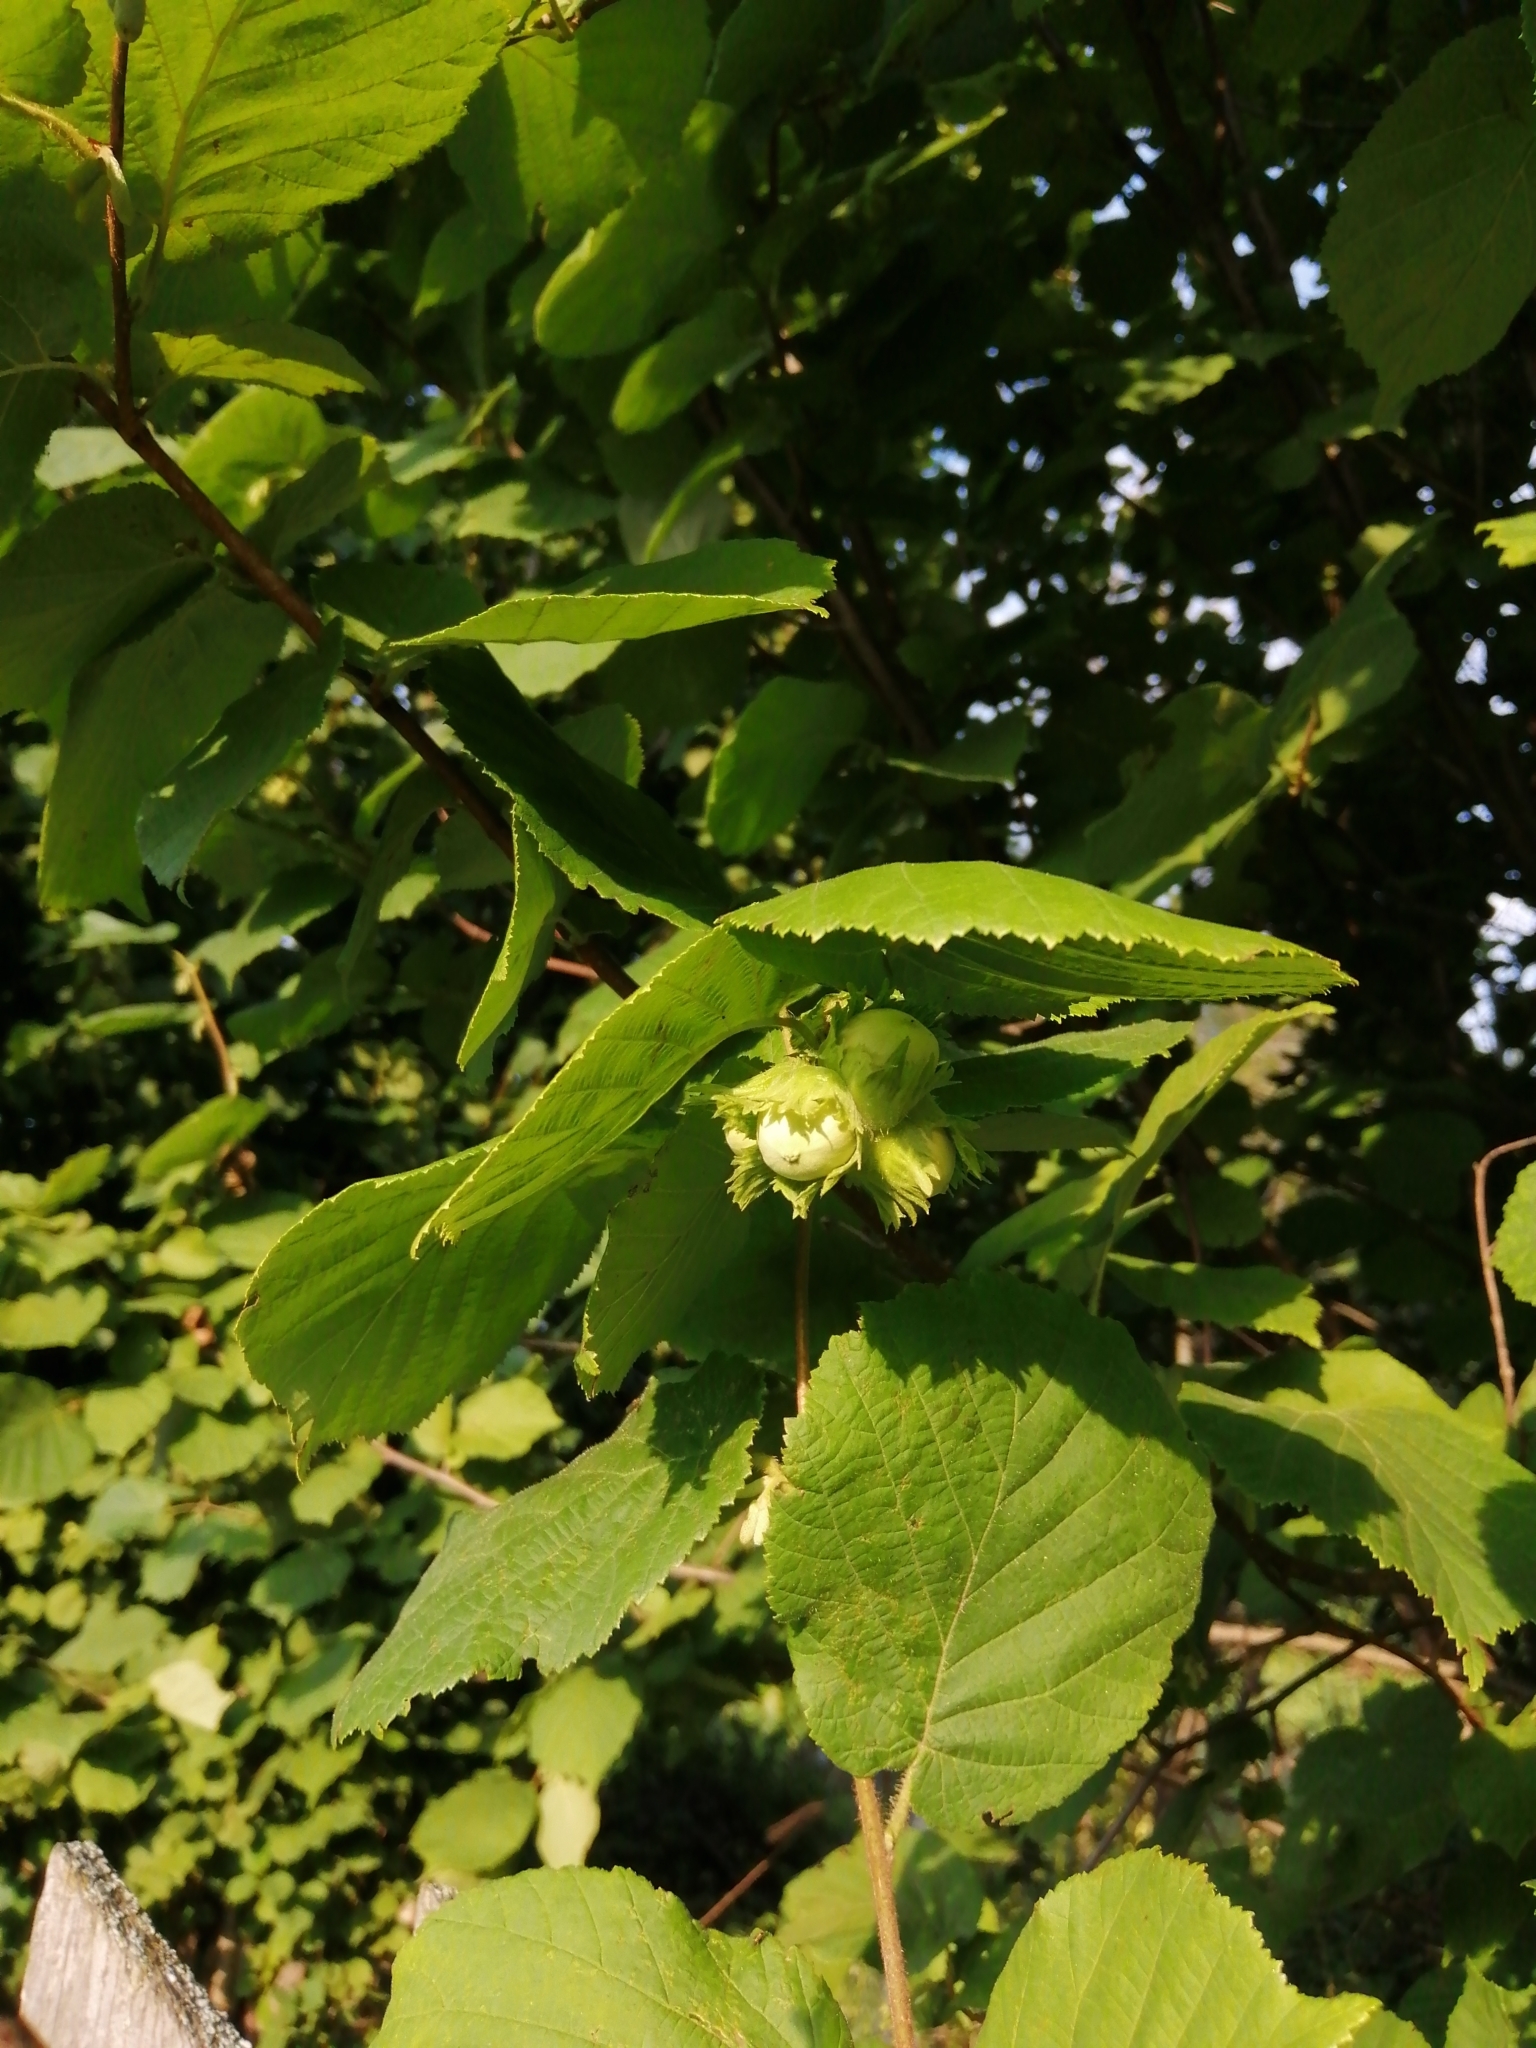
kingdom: Plantae
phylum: Tracheophyta
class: Magnoliopsida
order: Fagales
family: Betulaceae
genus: Corylus
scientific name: Corylus avellana
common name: European hazel
